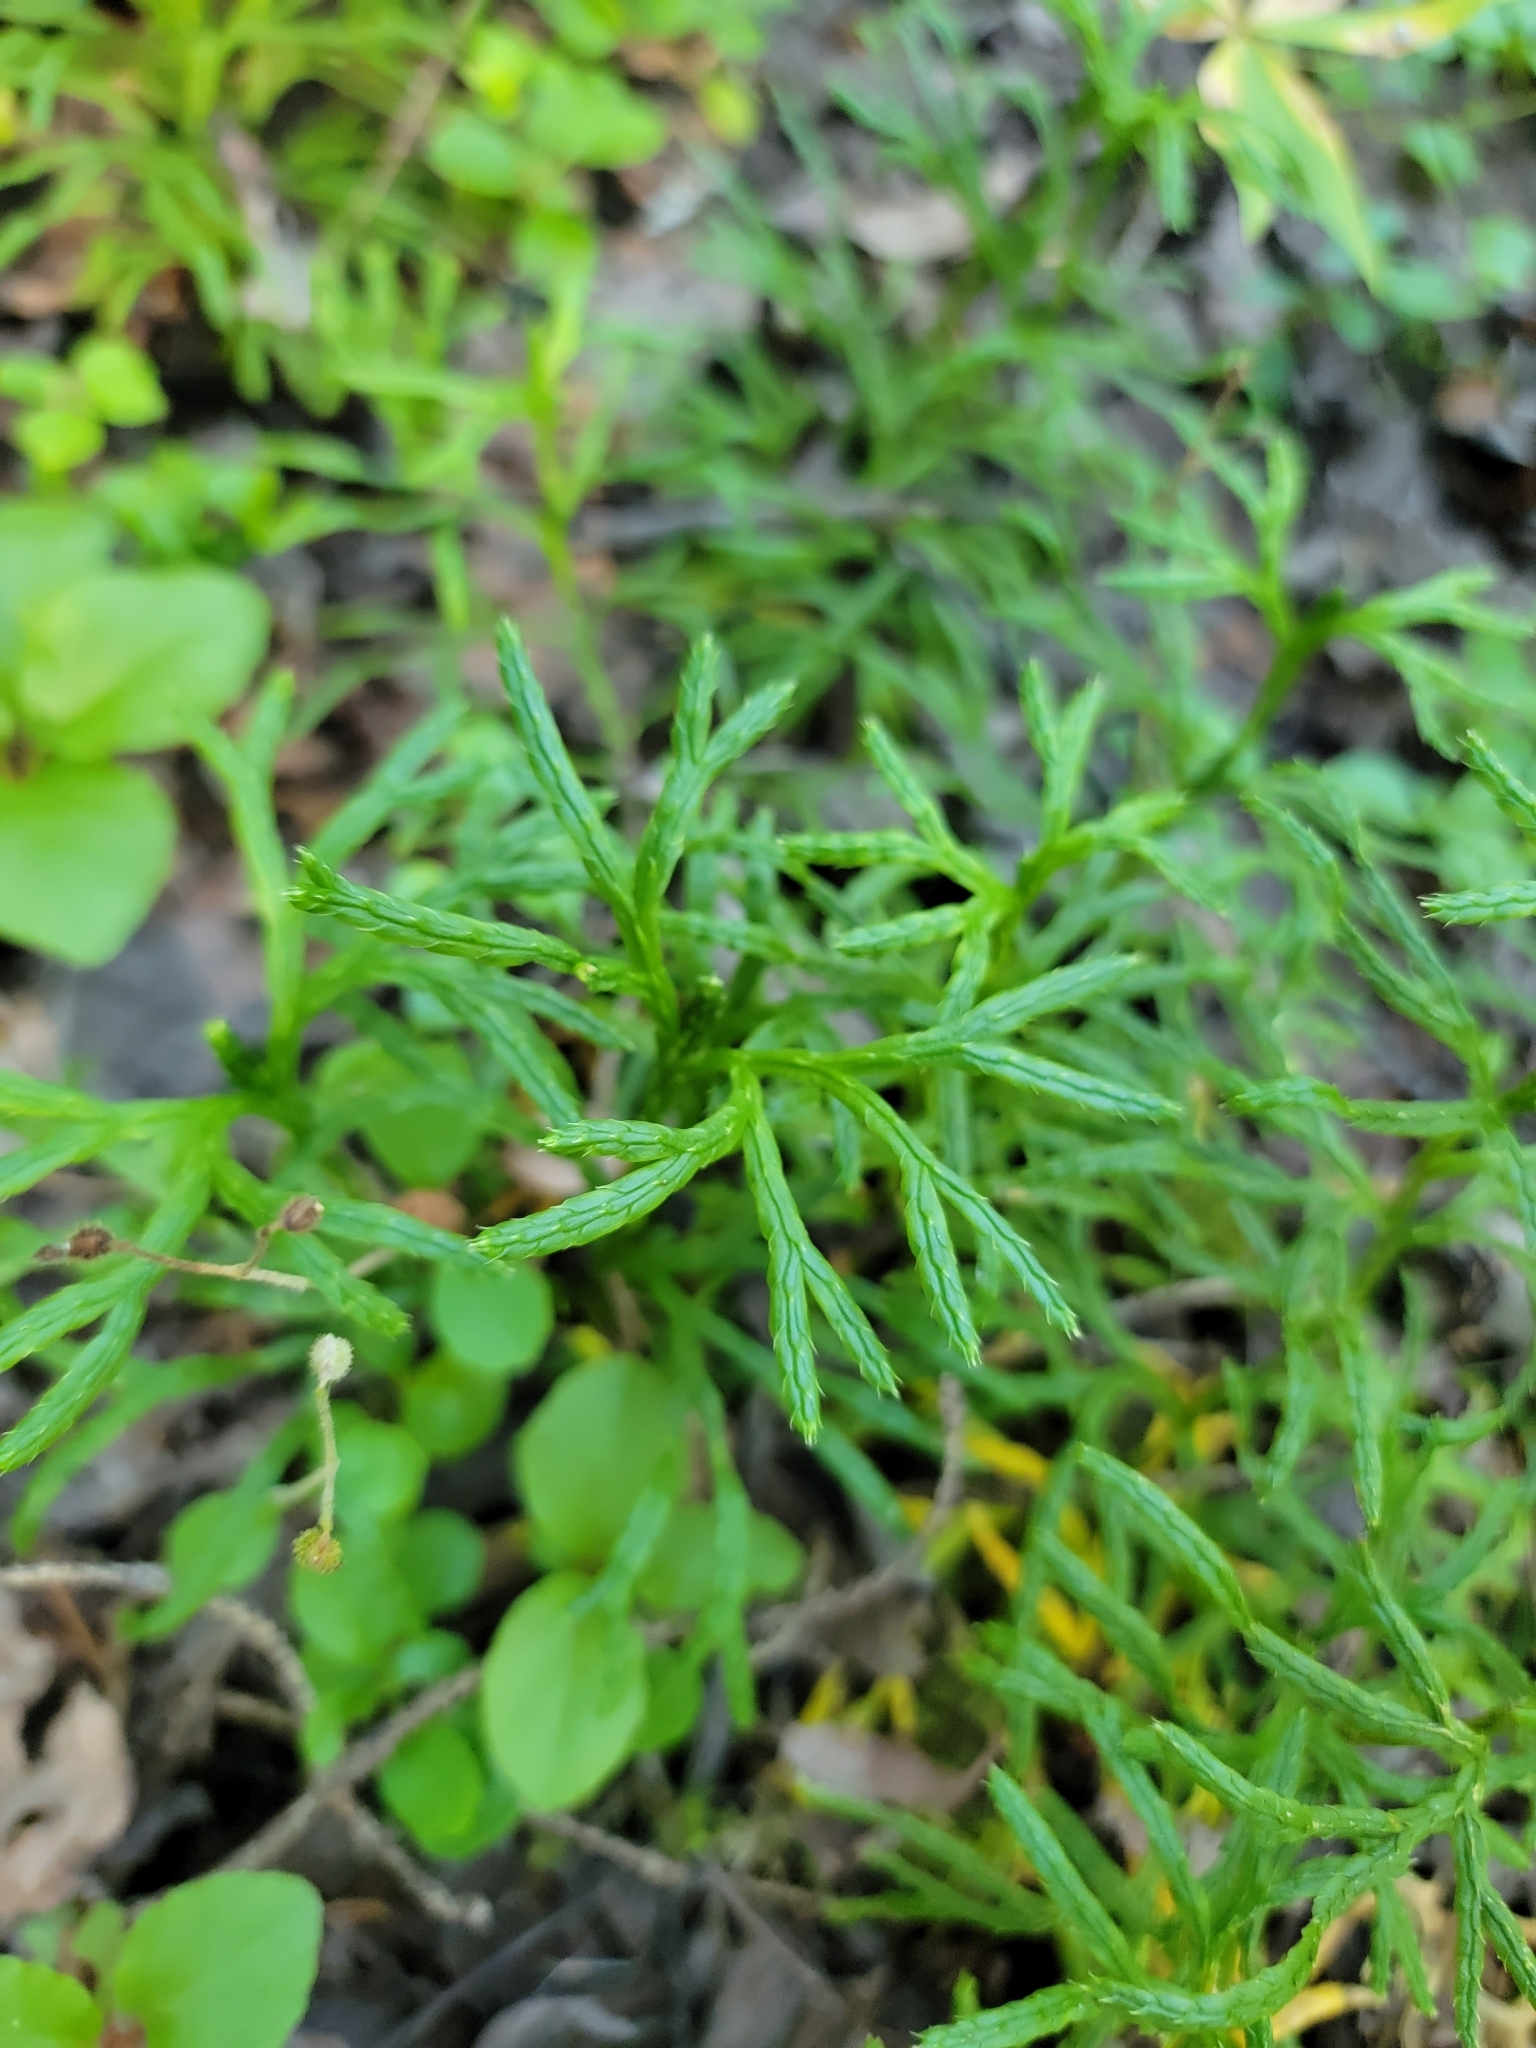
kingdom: Plantae
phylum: Tracheophyta
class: Lycopodiopsida
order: Lycopodiales
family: Lycopodiaceae
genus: Diphasiastrum
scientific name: Diphasiastrum complanatum
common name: Northern running-pine
